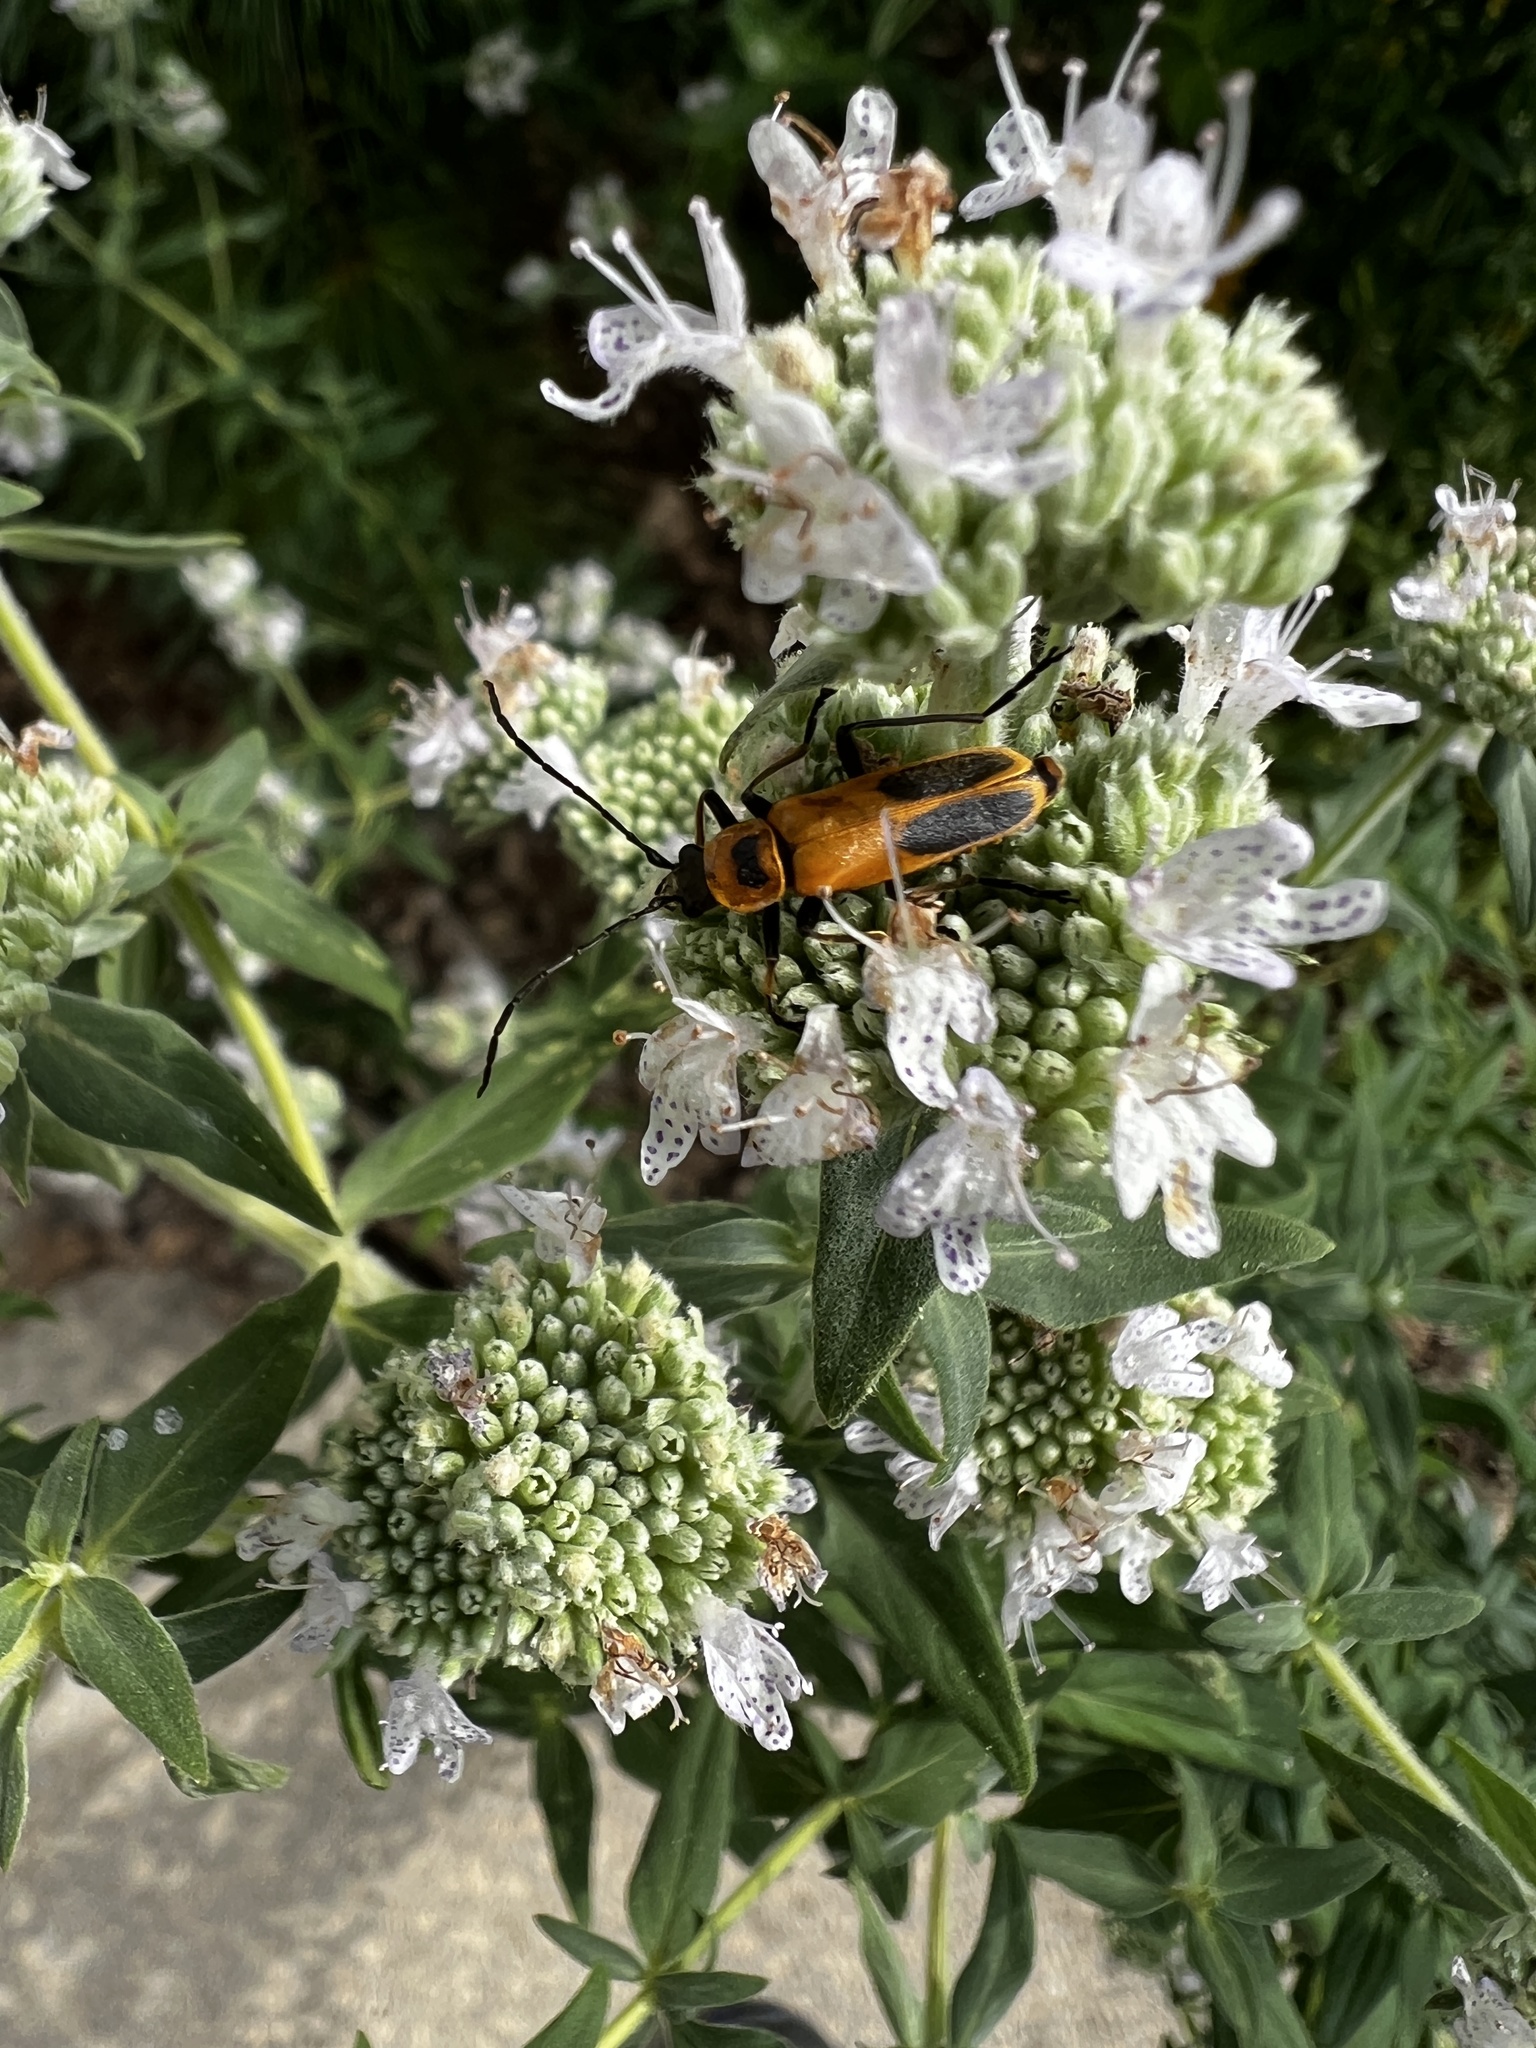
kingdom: Animalia
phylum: Arthropoda
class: Insecta
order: Coleoptera
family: Cantharidae
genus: Chauliognathus
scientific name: Chauliognathus pensylvanicus
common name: Goldenrod soldier beetle
